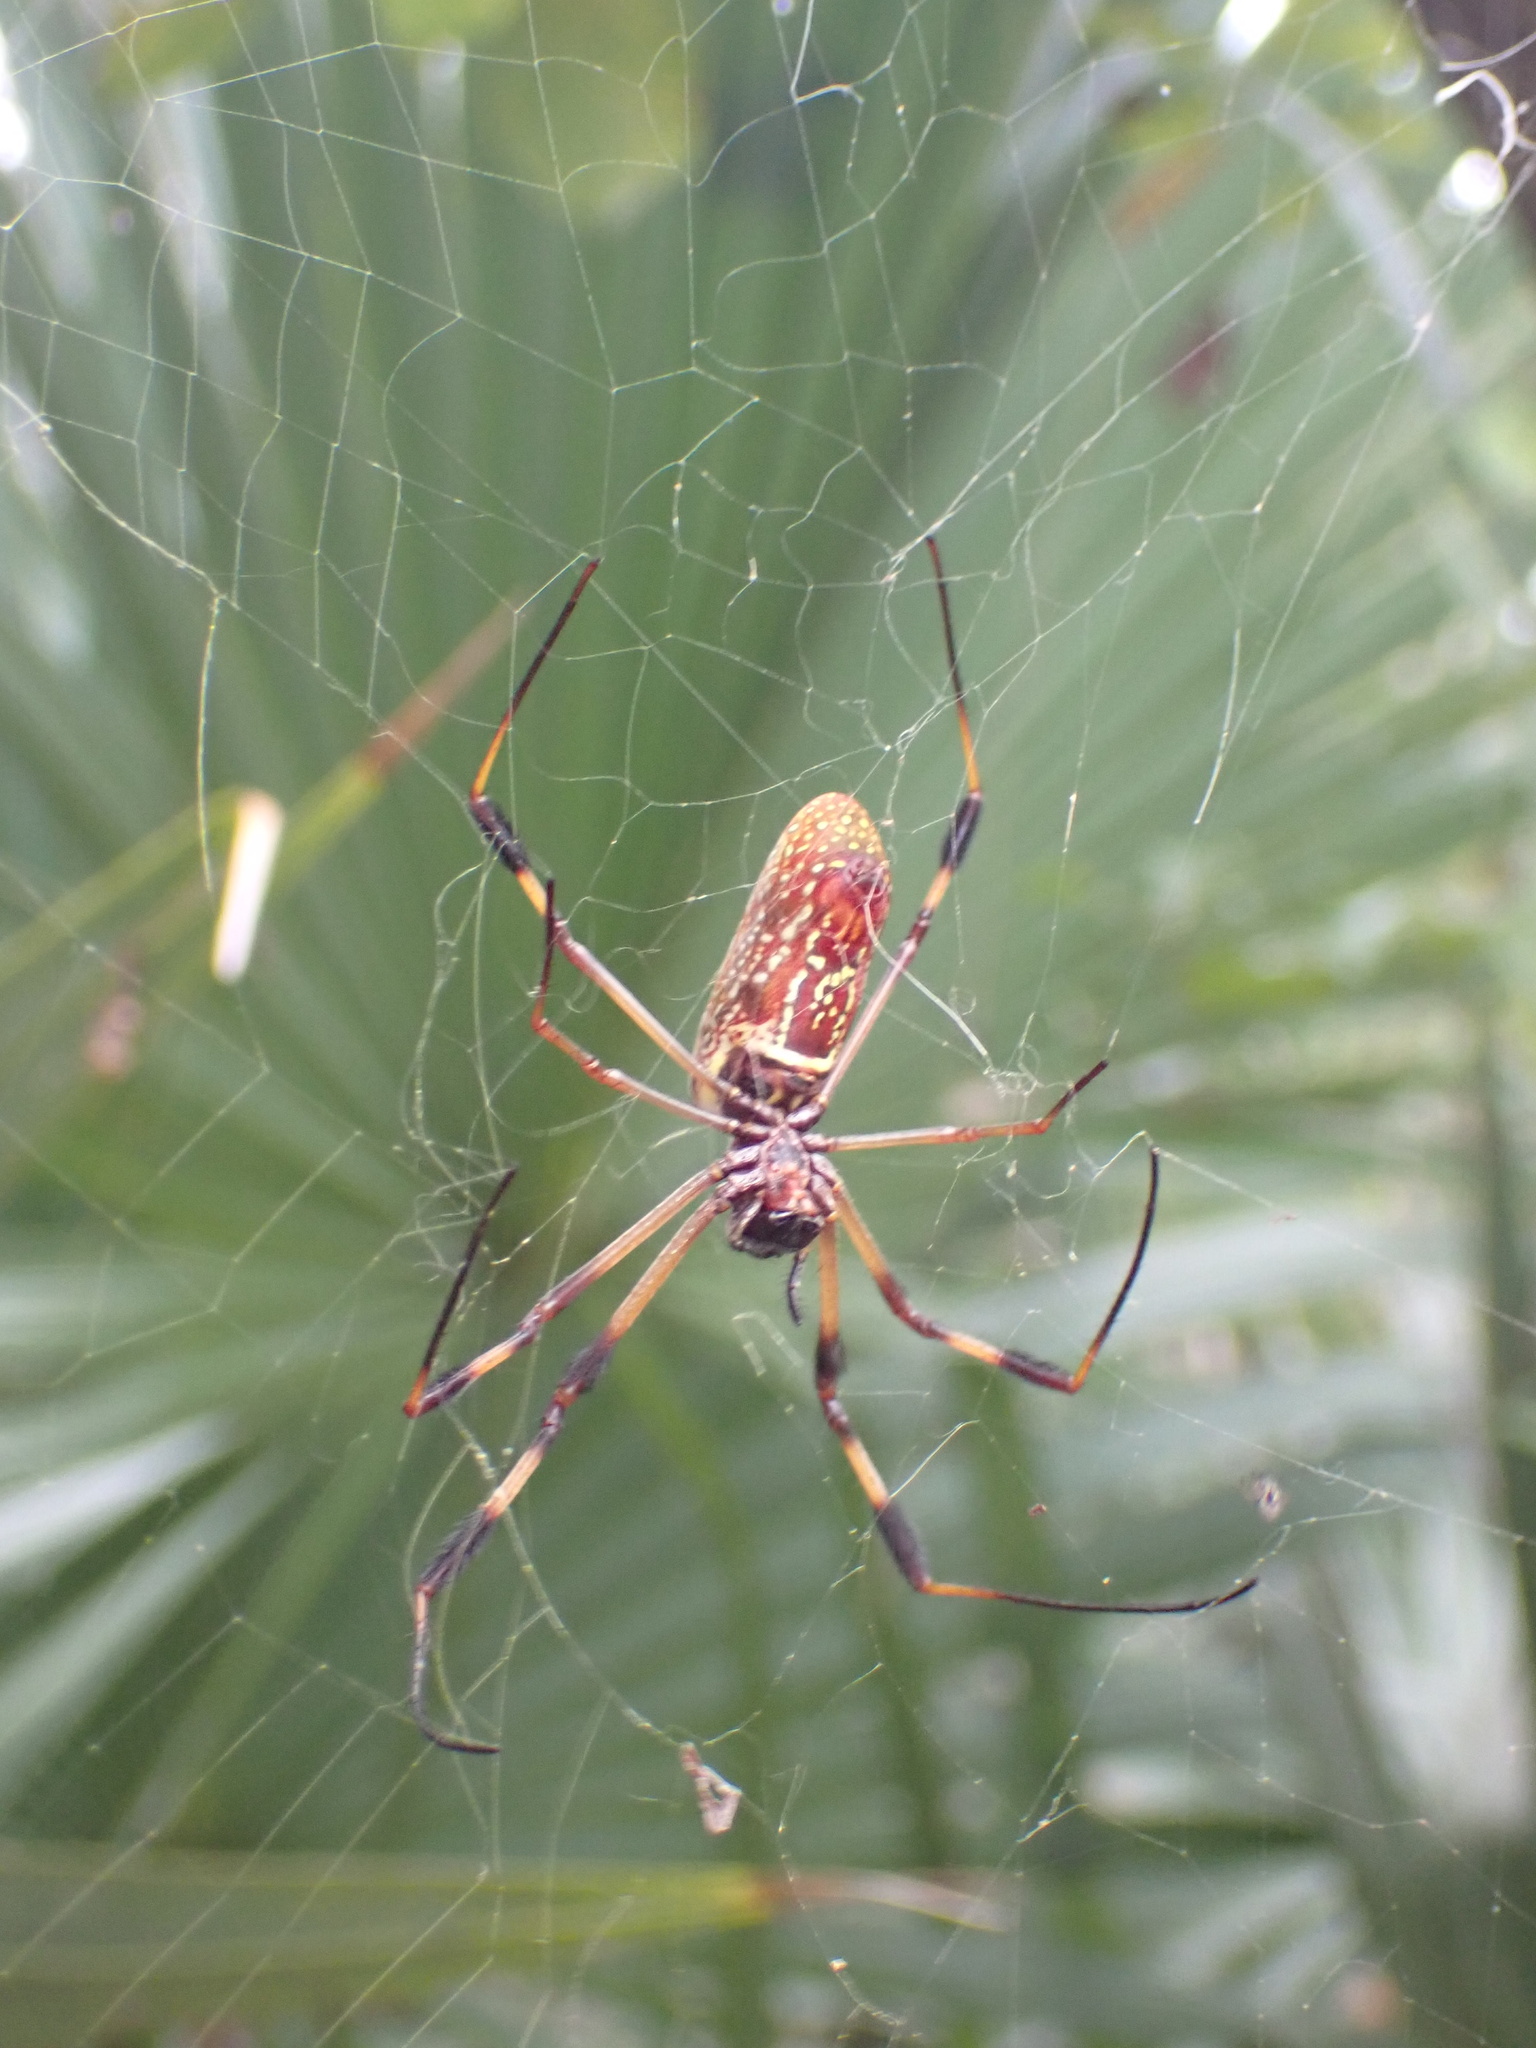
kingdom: Animalia
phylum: Arthropoda
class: Arachnida
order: Araneae
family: Araneidae
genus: Trichonephila
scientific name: Trichonephila clavipes
